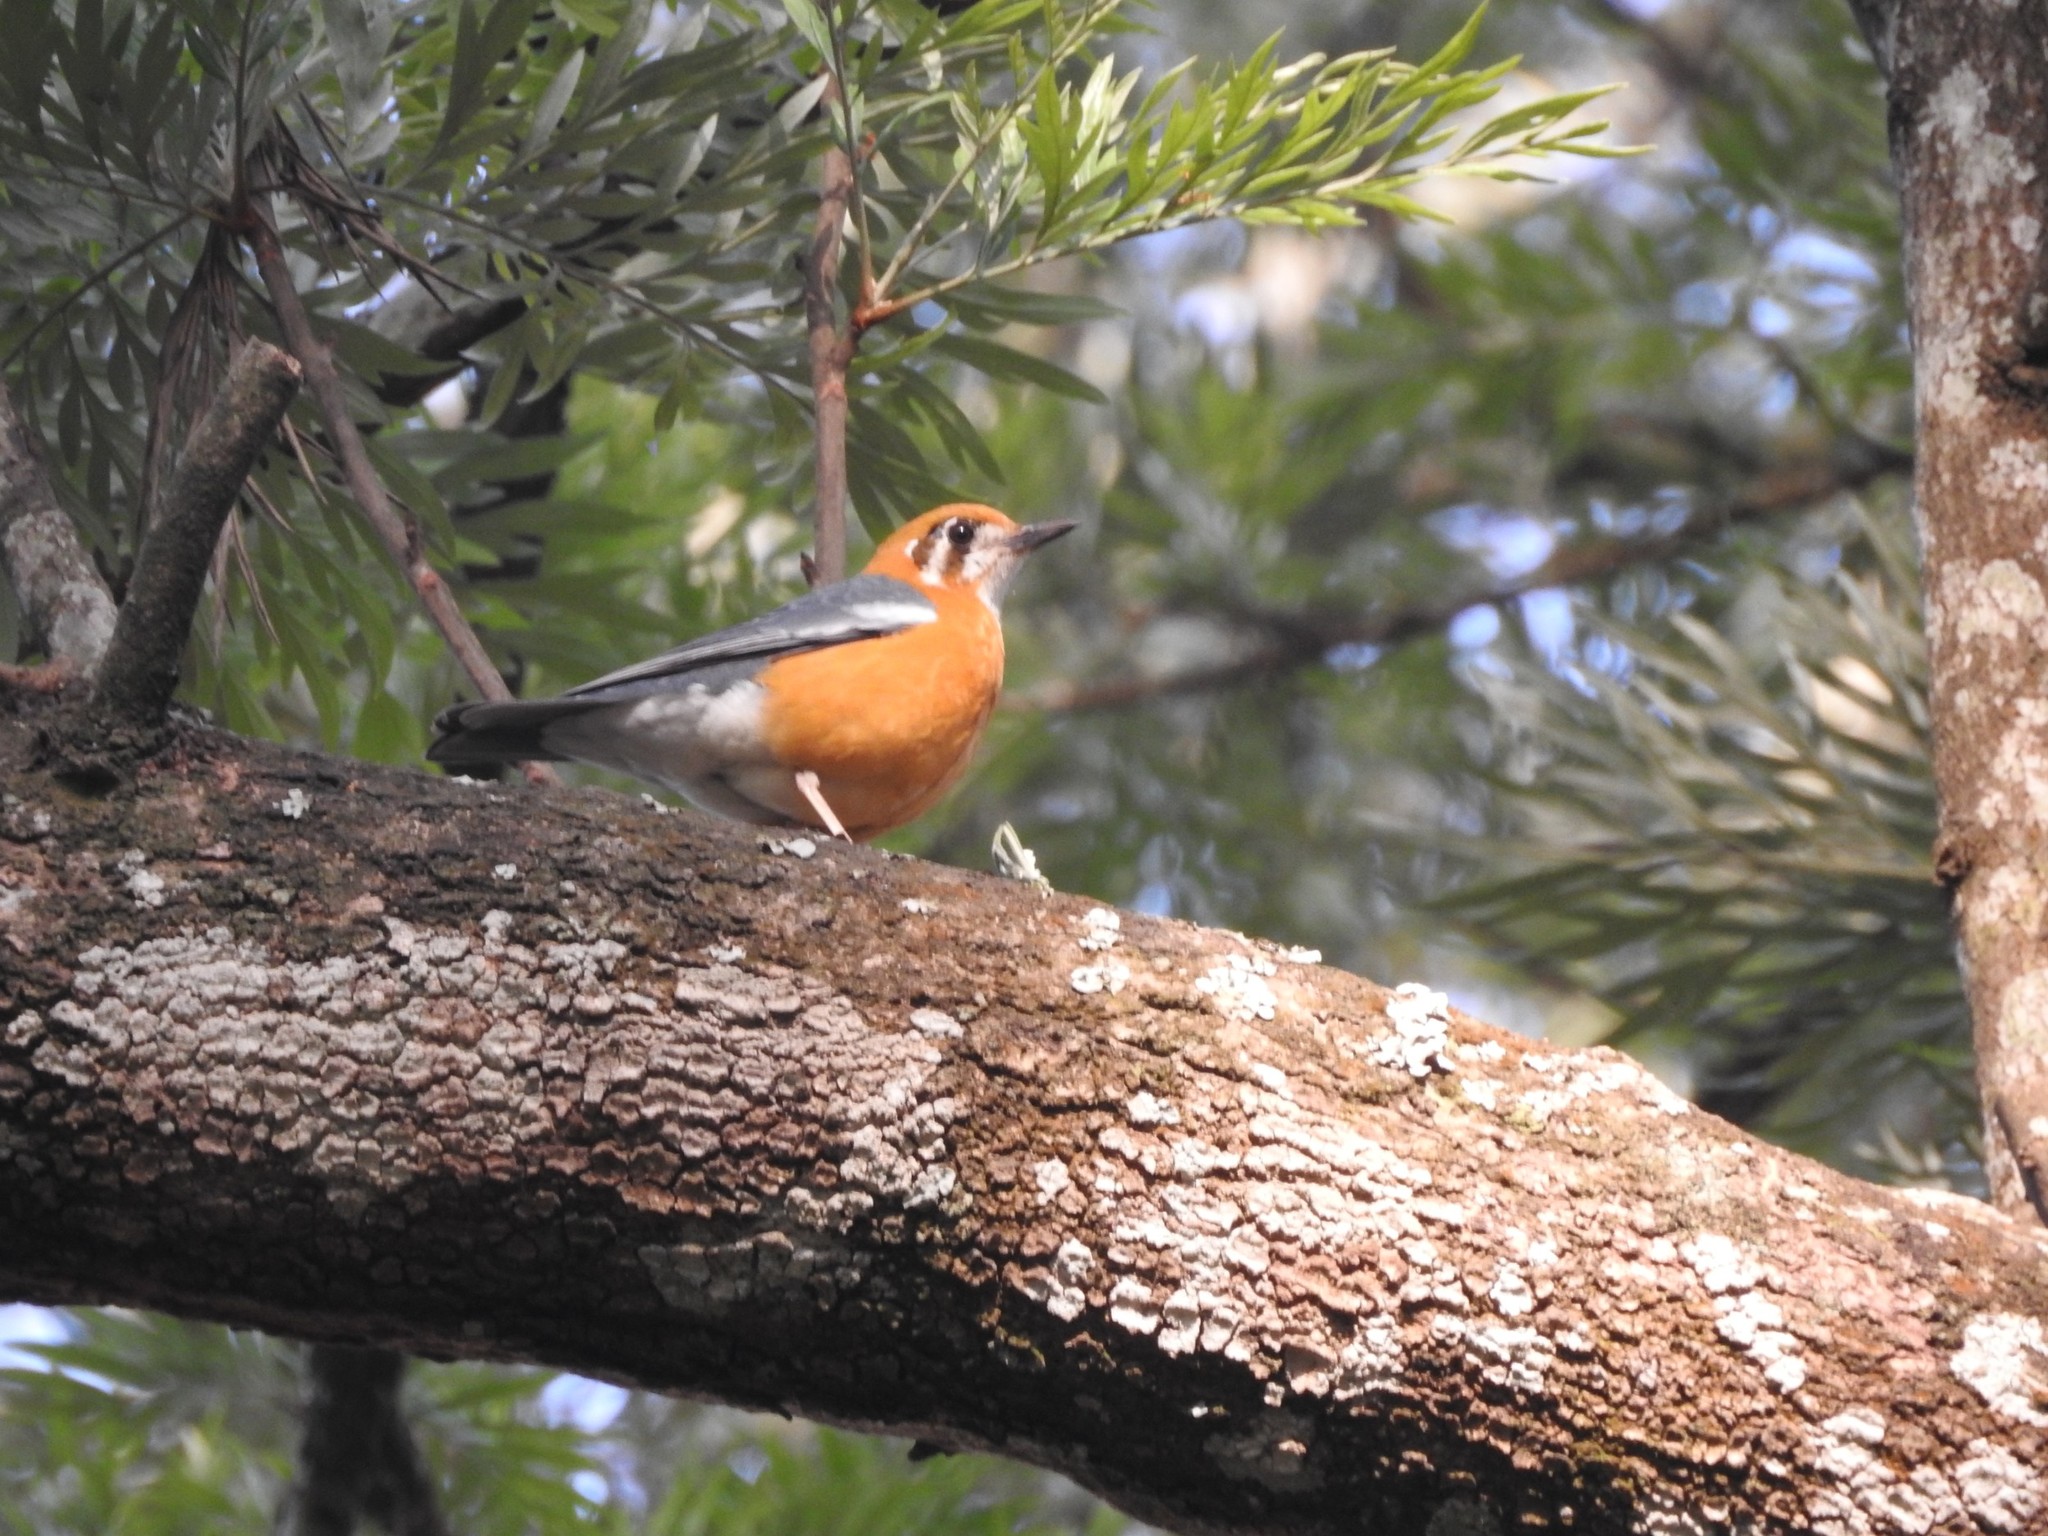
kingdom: Animalia
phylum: Chordata
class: Aves
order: Passeriformes
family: Turdidae
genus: Geokichla
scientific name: Geokichla citrina
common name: Orange-headed thrush
